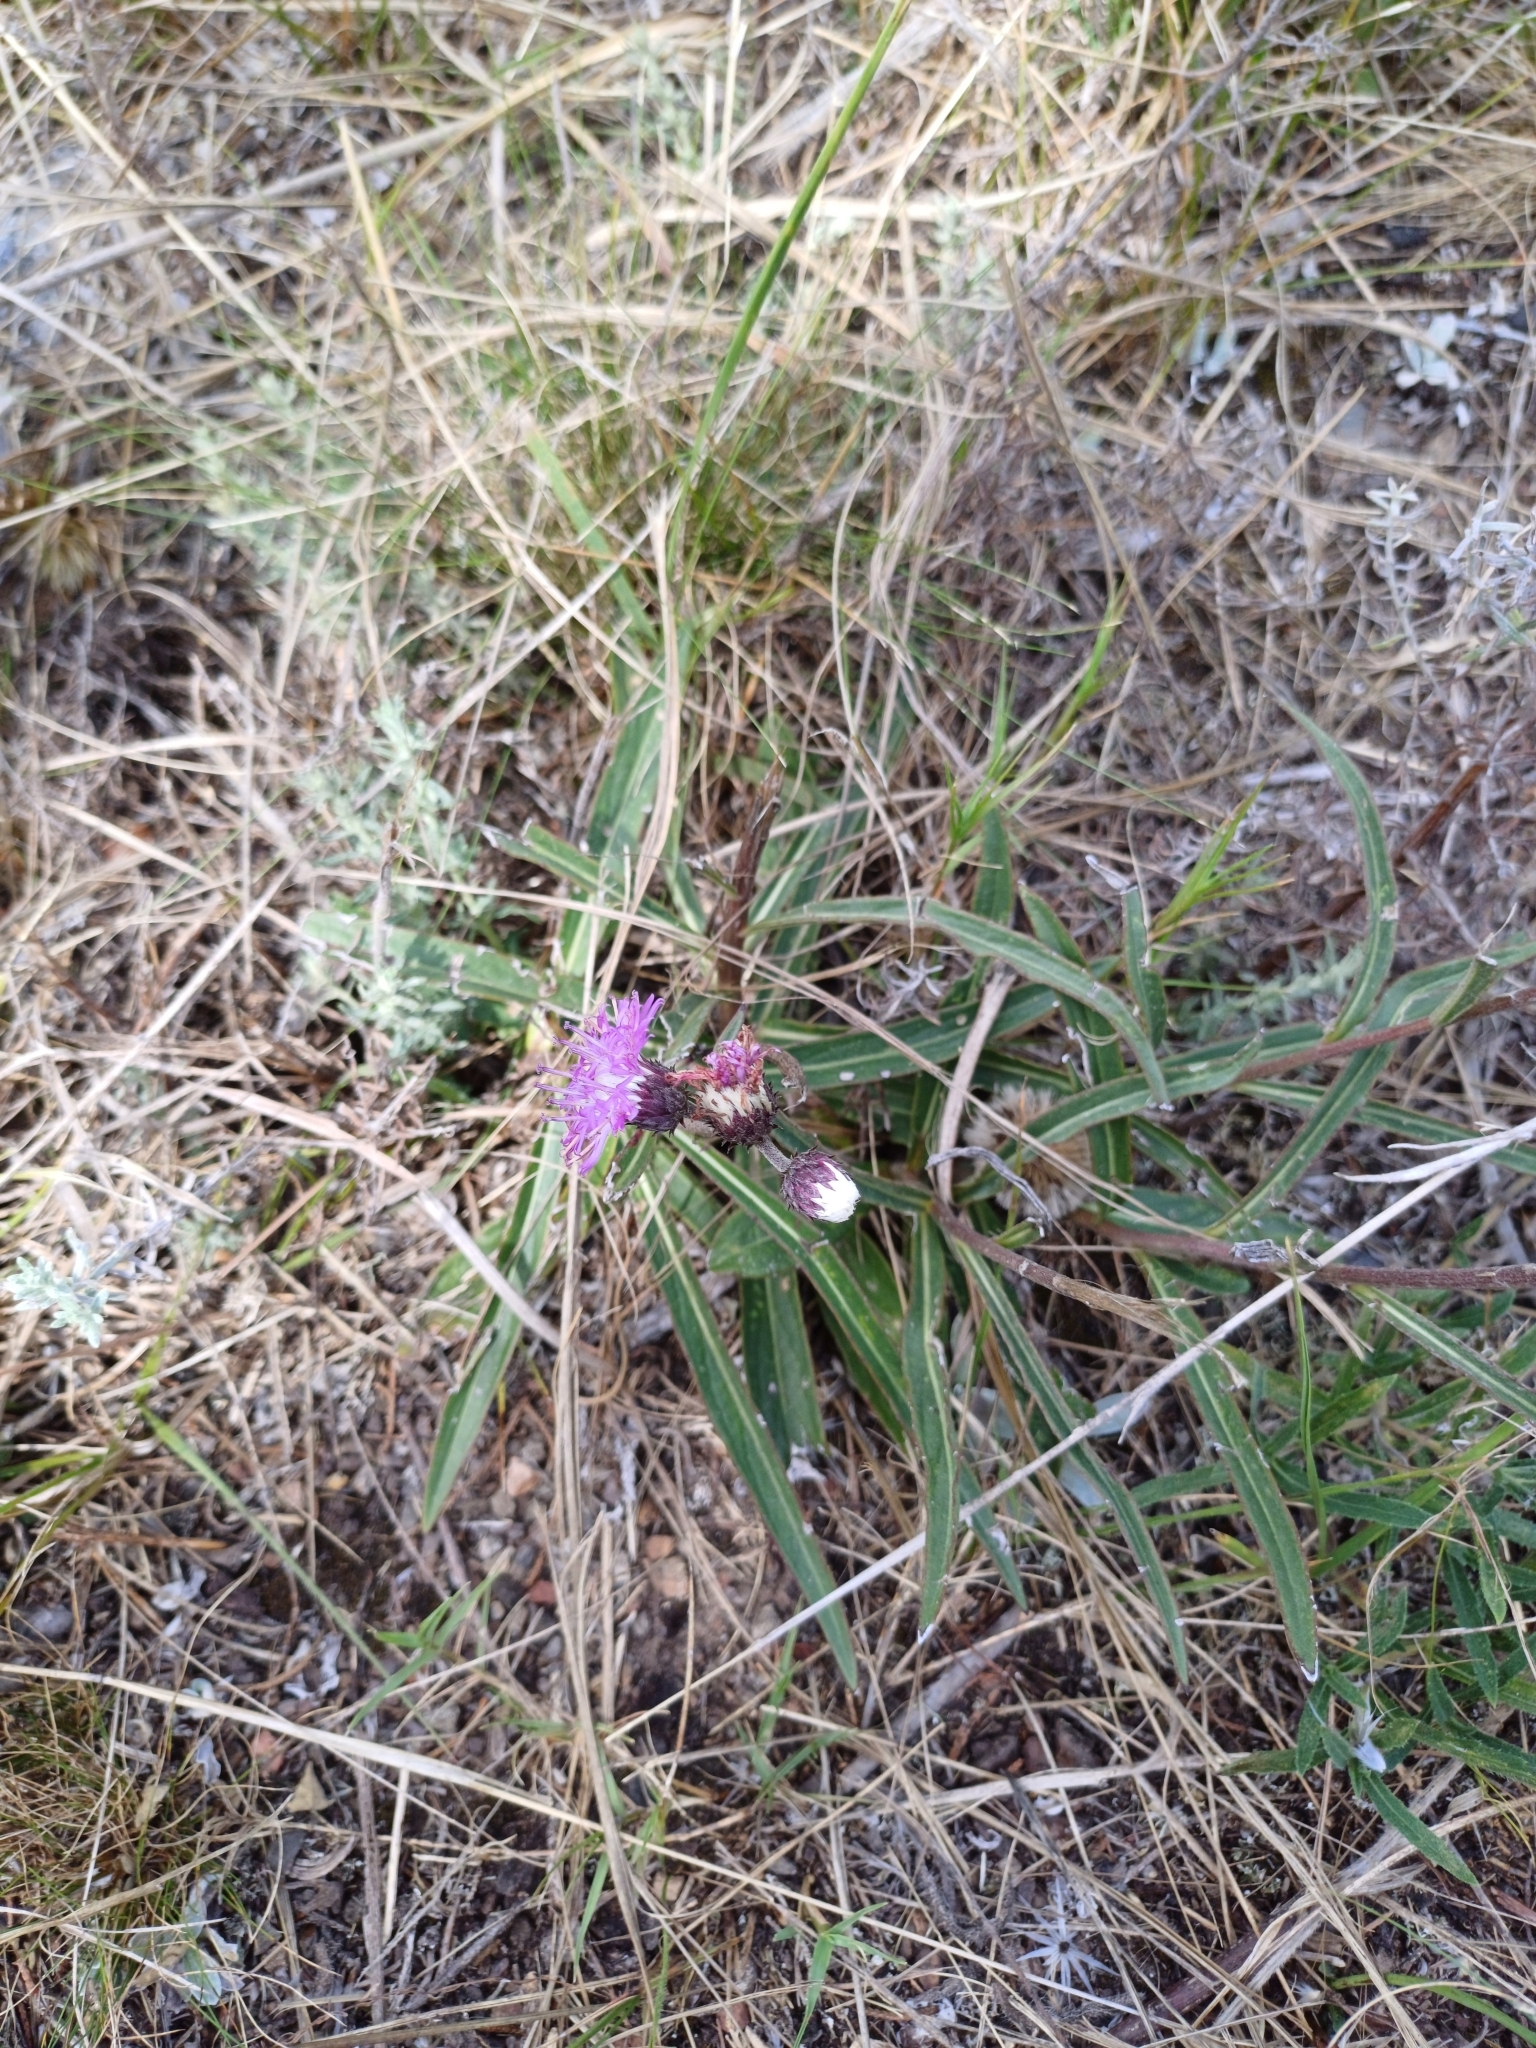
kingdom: Plantae
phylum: Tracheophyta
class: Magnoliopsida
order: Asterales
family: Asteraceae
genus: Chrysolaena
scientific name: Chrysolaena flexuosa
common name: Zig-zag vernonia
